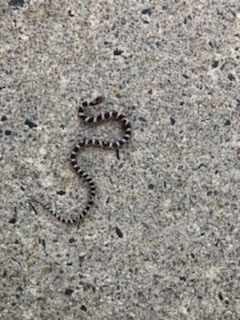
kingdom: Animalia
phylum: Chordata
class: Squamata
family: Colubridae
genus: Lampropeltis
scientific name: Lampropeltis triangulum
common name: Eastern milksnake
